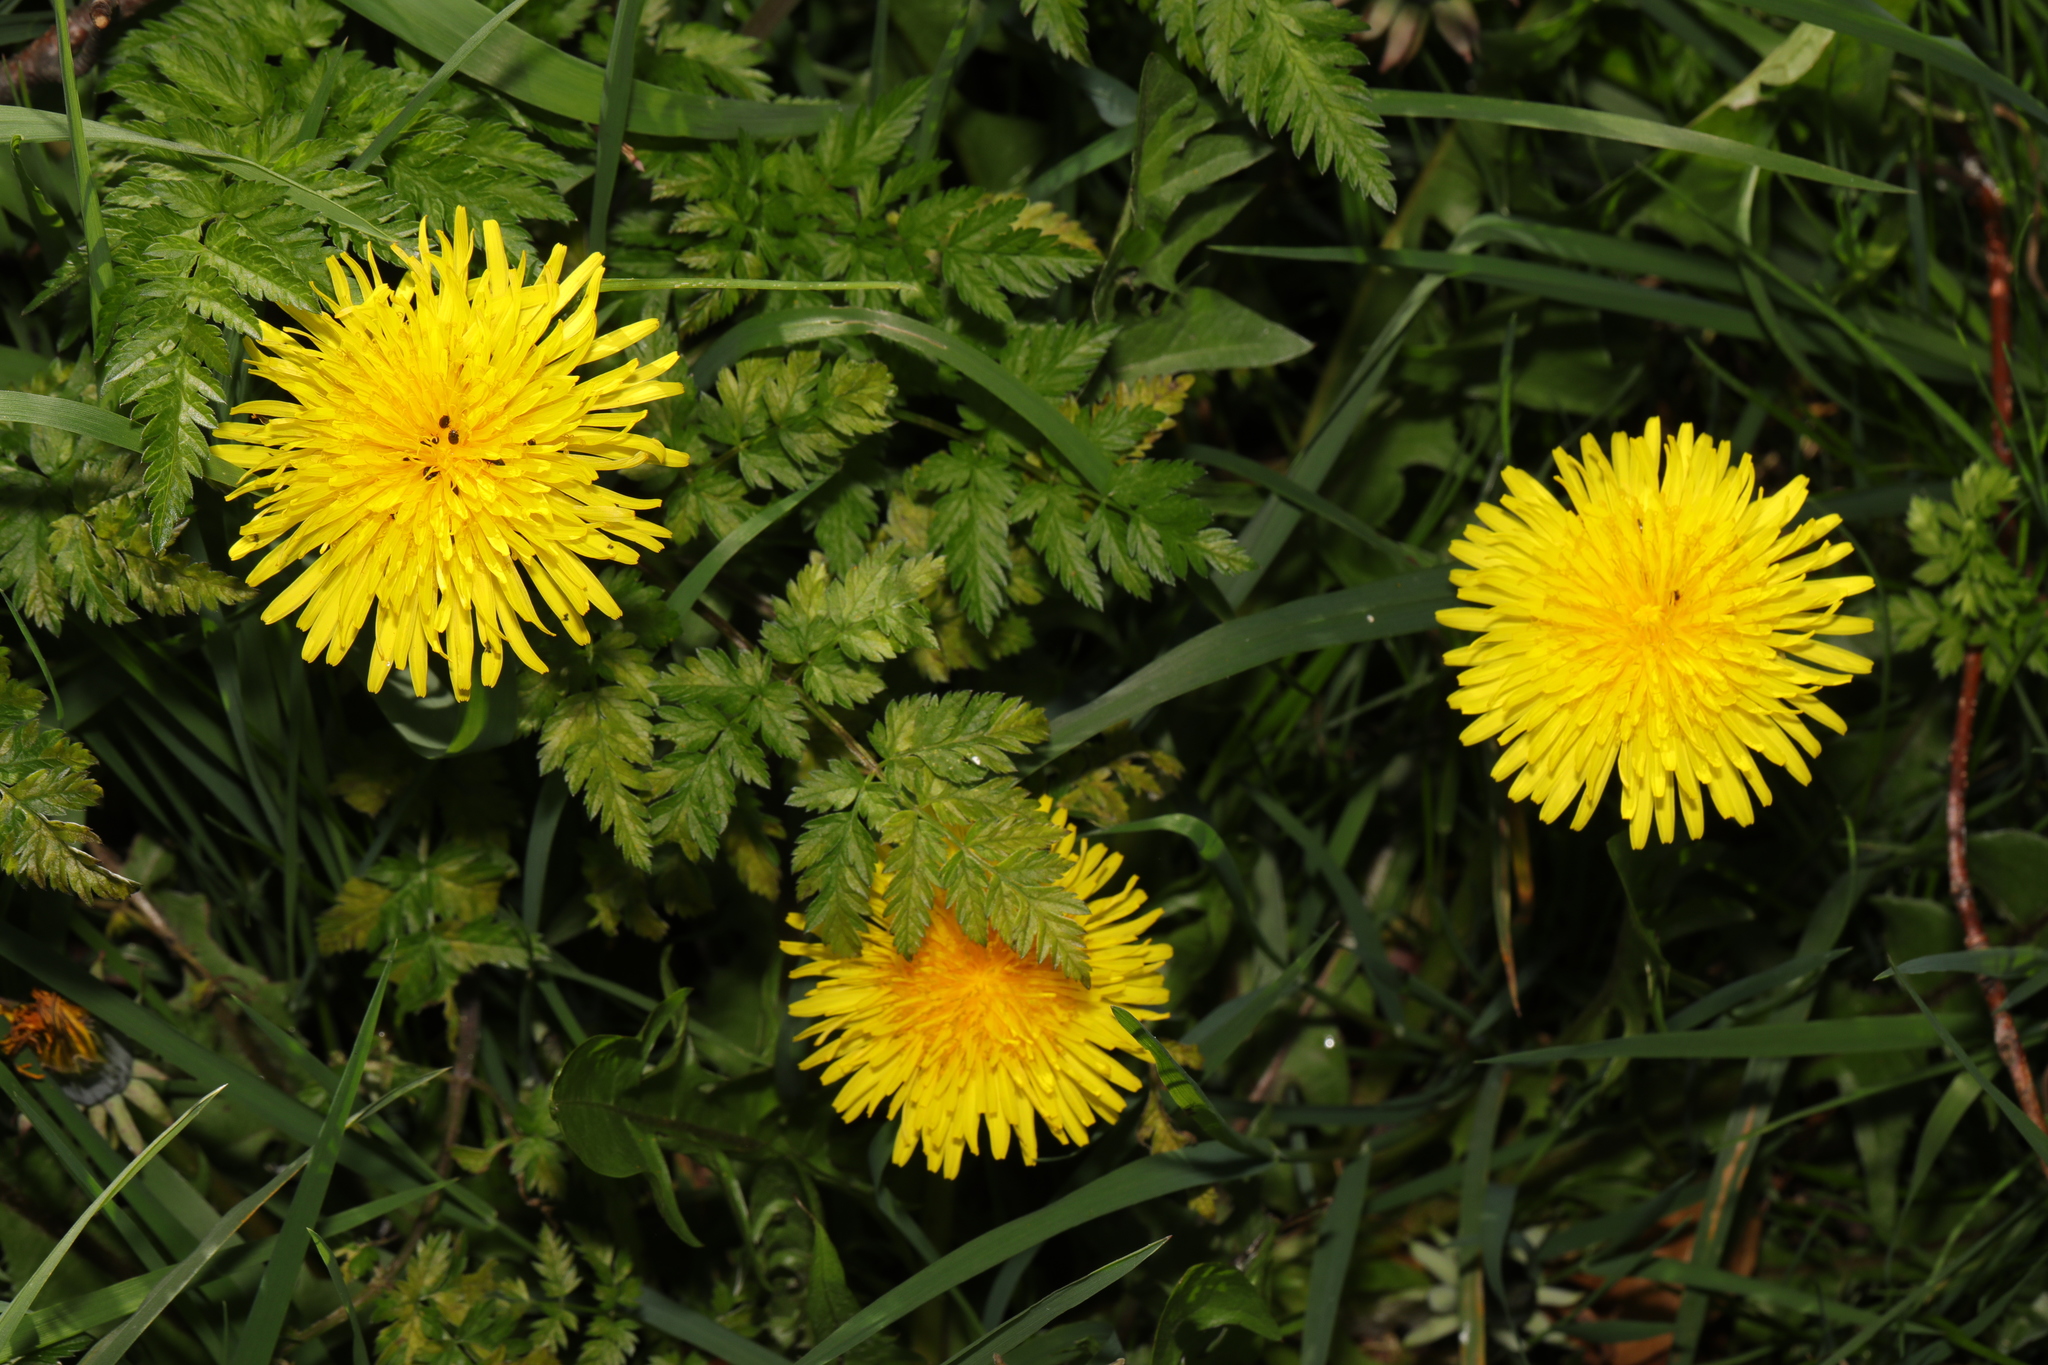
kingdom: Plantae
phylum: Tracheophyta
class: Magnoliopsida
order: Asterales
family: Asteraceae
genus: Taraxacum
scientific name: Taraxacum officinale
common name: Common dandelion
